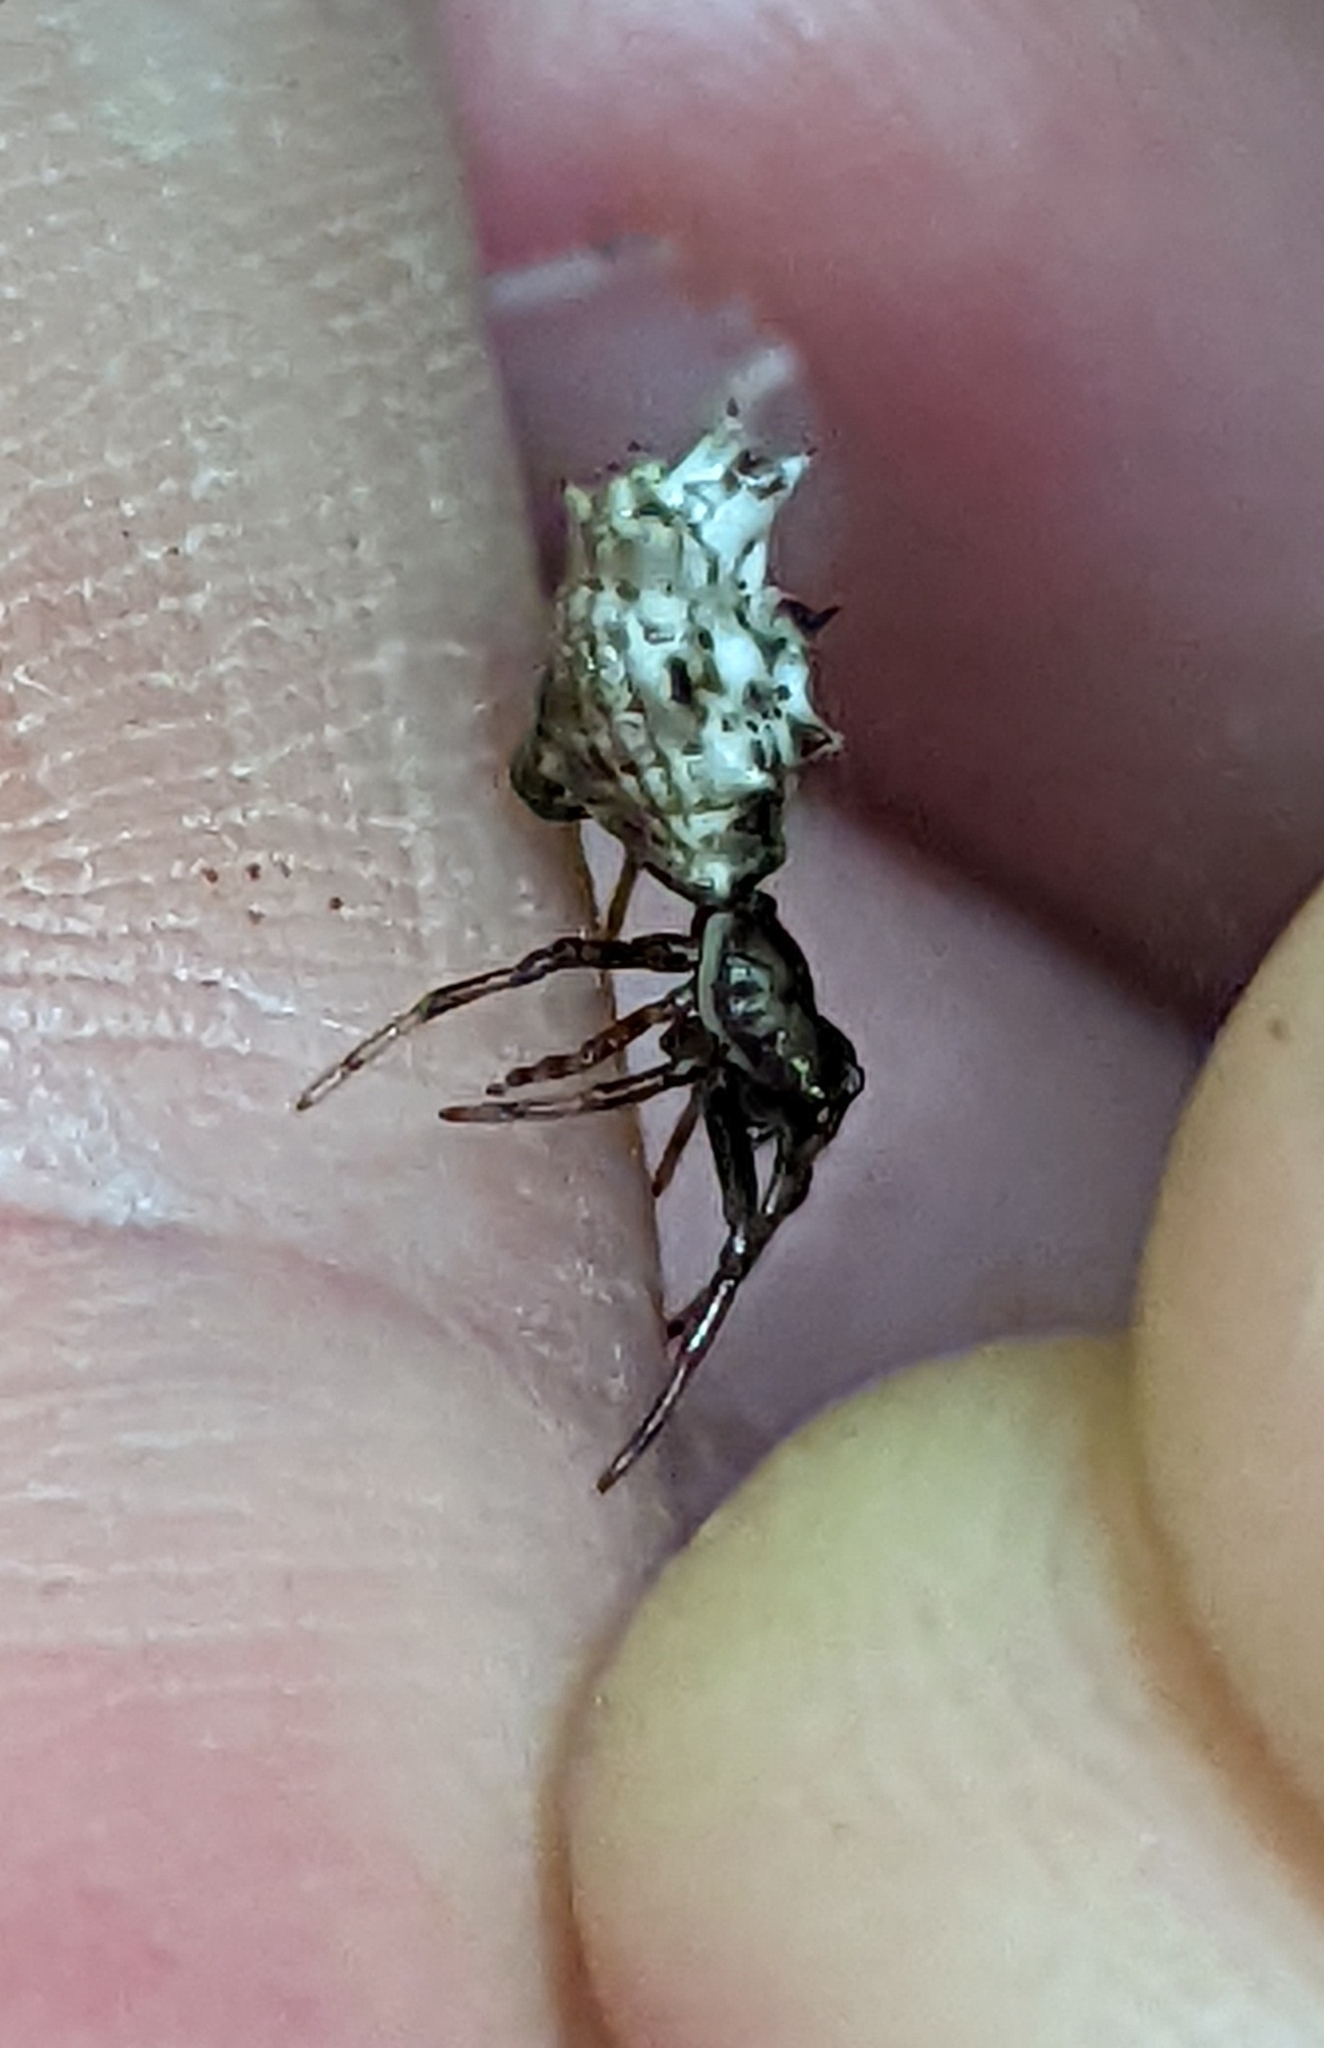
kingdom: Animalia
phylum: Arthropoda
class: Arachnida
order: Araneae
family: Araneidae
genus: Micrathena
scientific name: Micrathena gracilis
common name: Orb weavers
